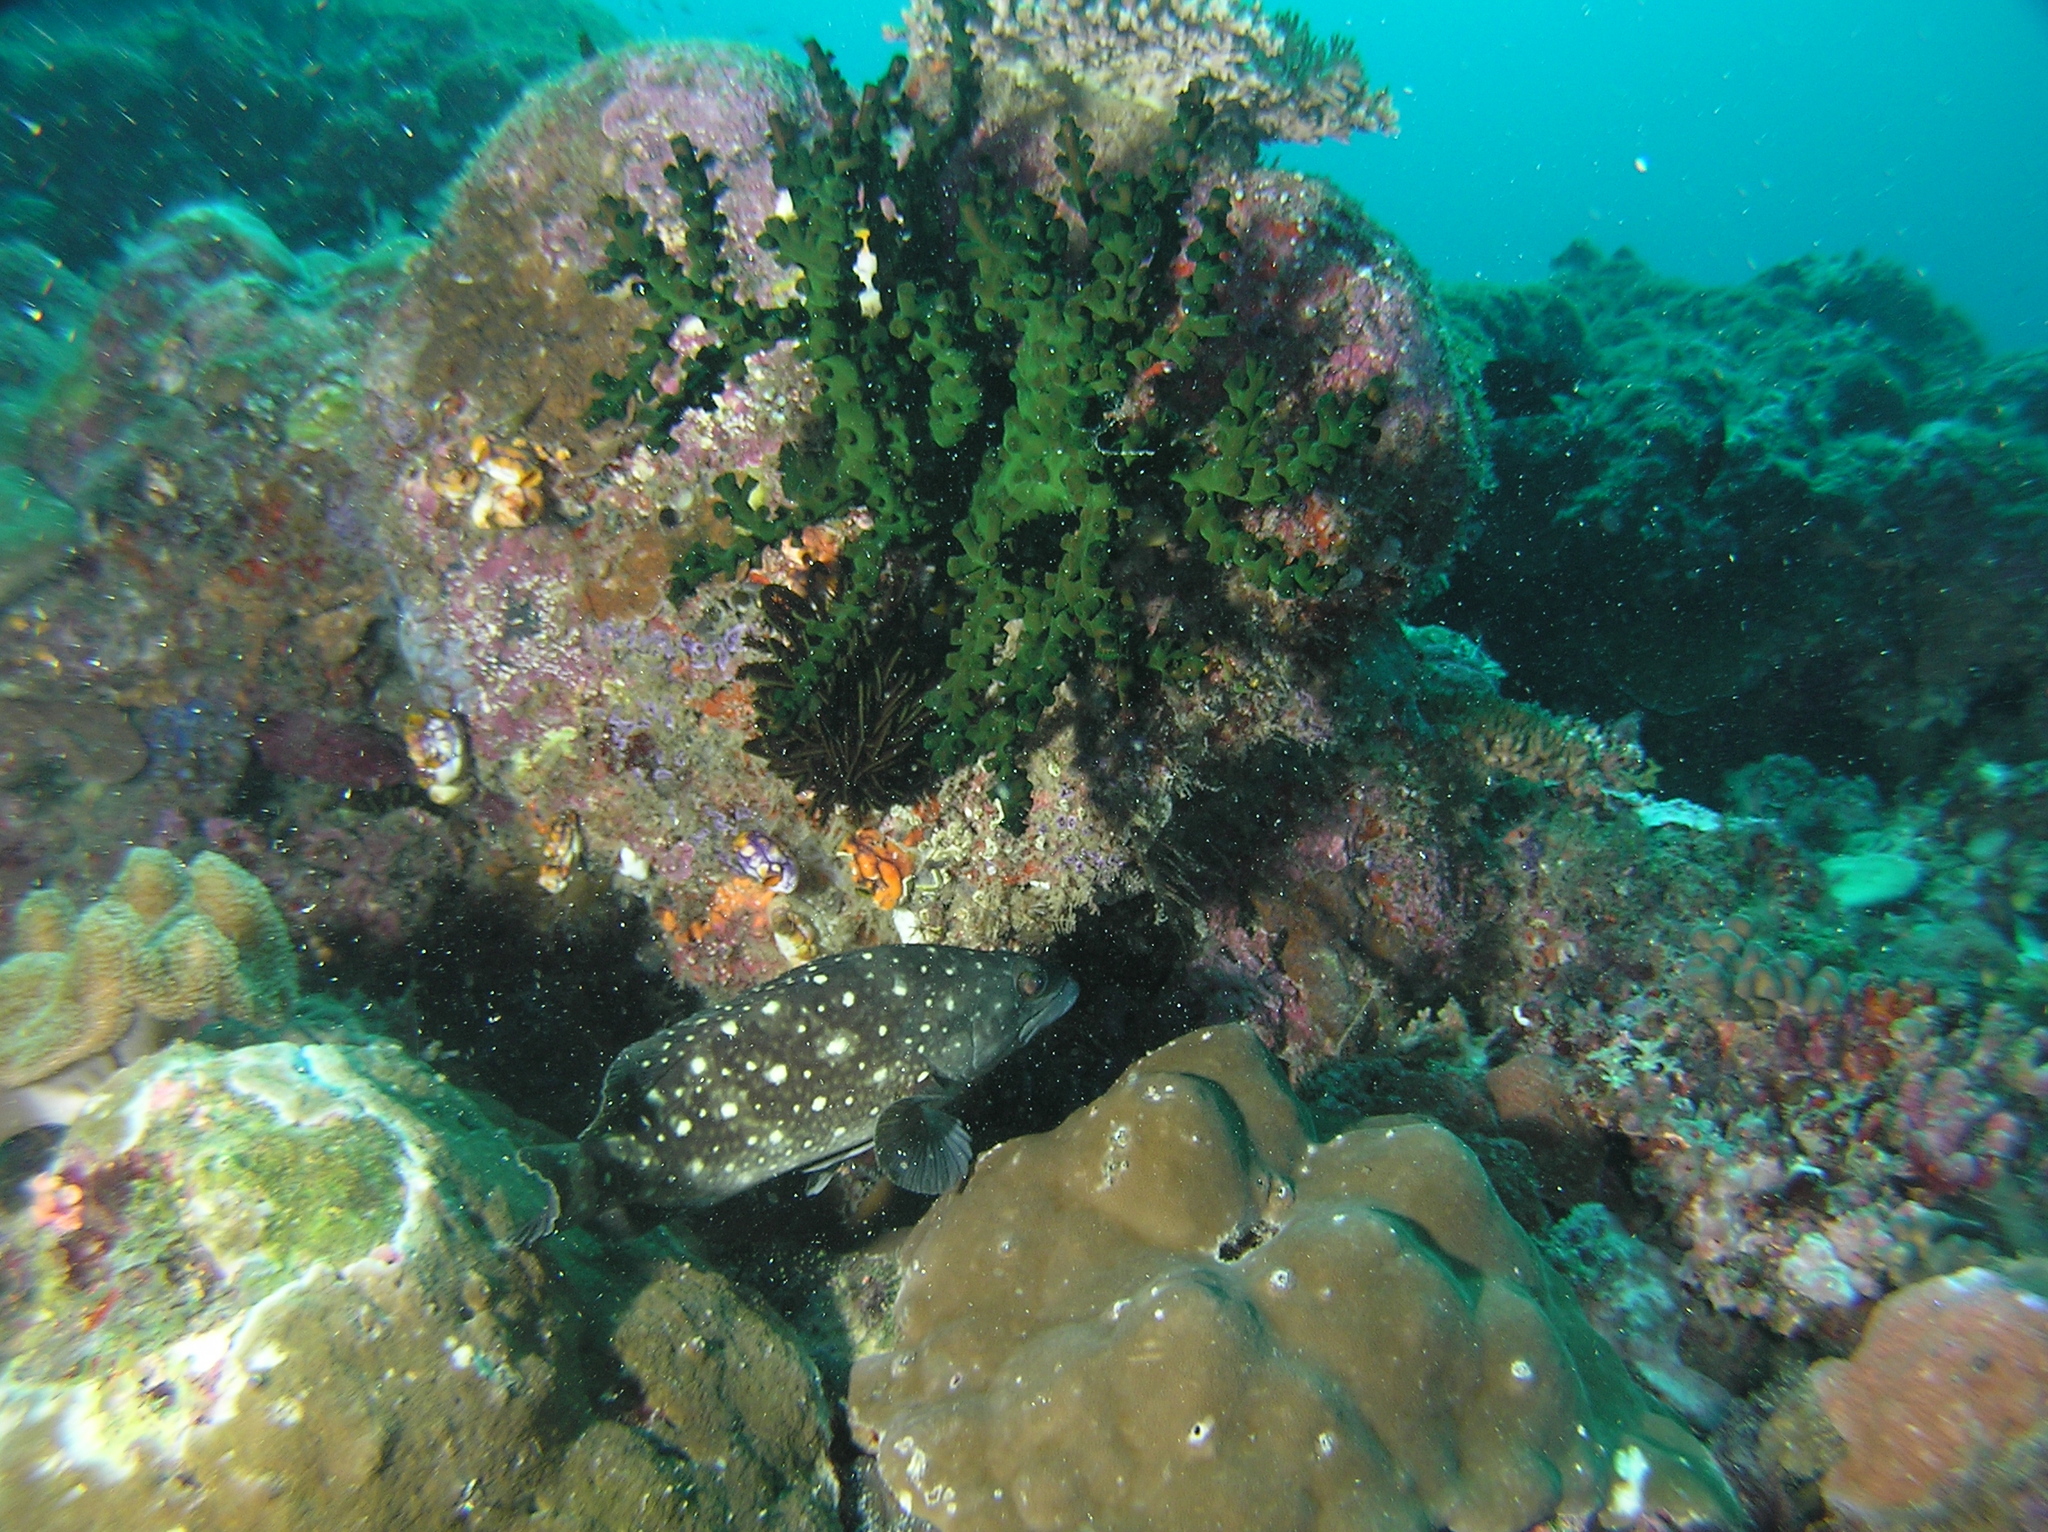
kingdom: Animalia
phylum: Chordata
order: Perciformes
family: Serranidae
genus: Epinephelus
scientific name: Epinephelus coeruleopunctatus
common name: Whitespotted grouper
